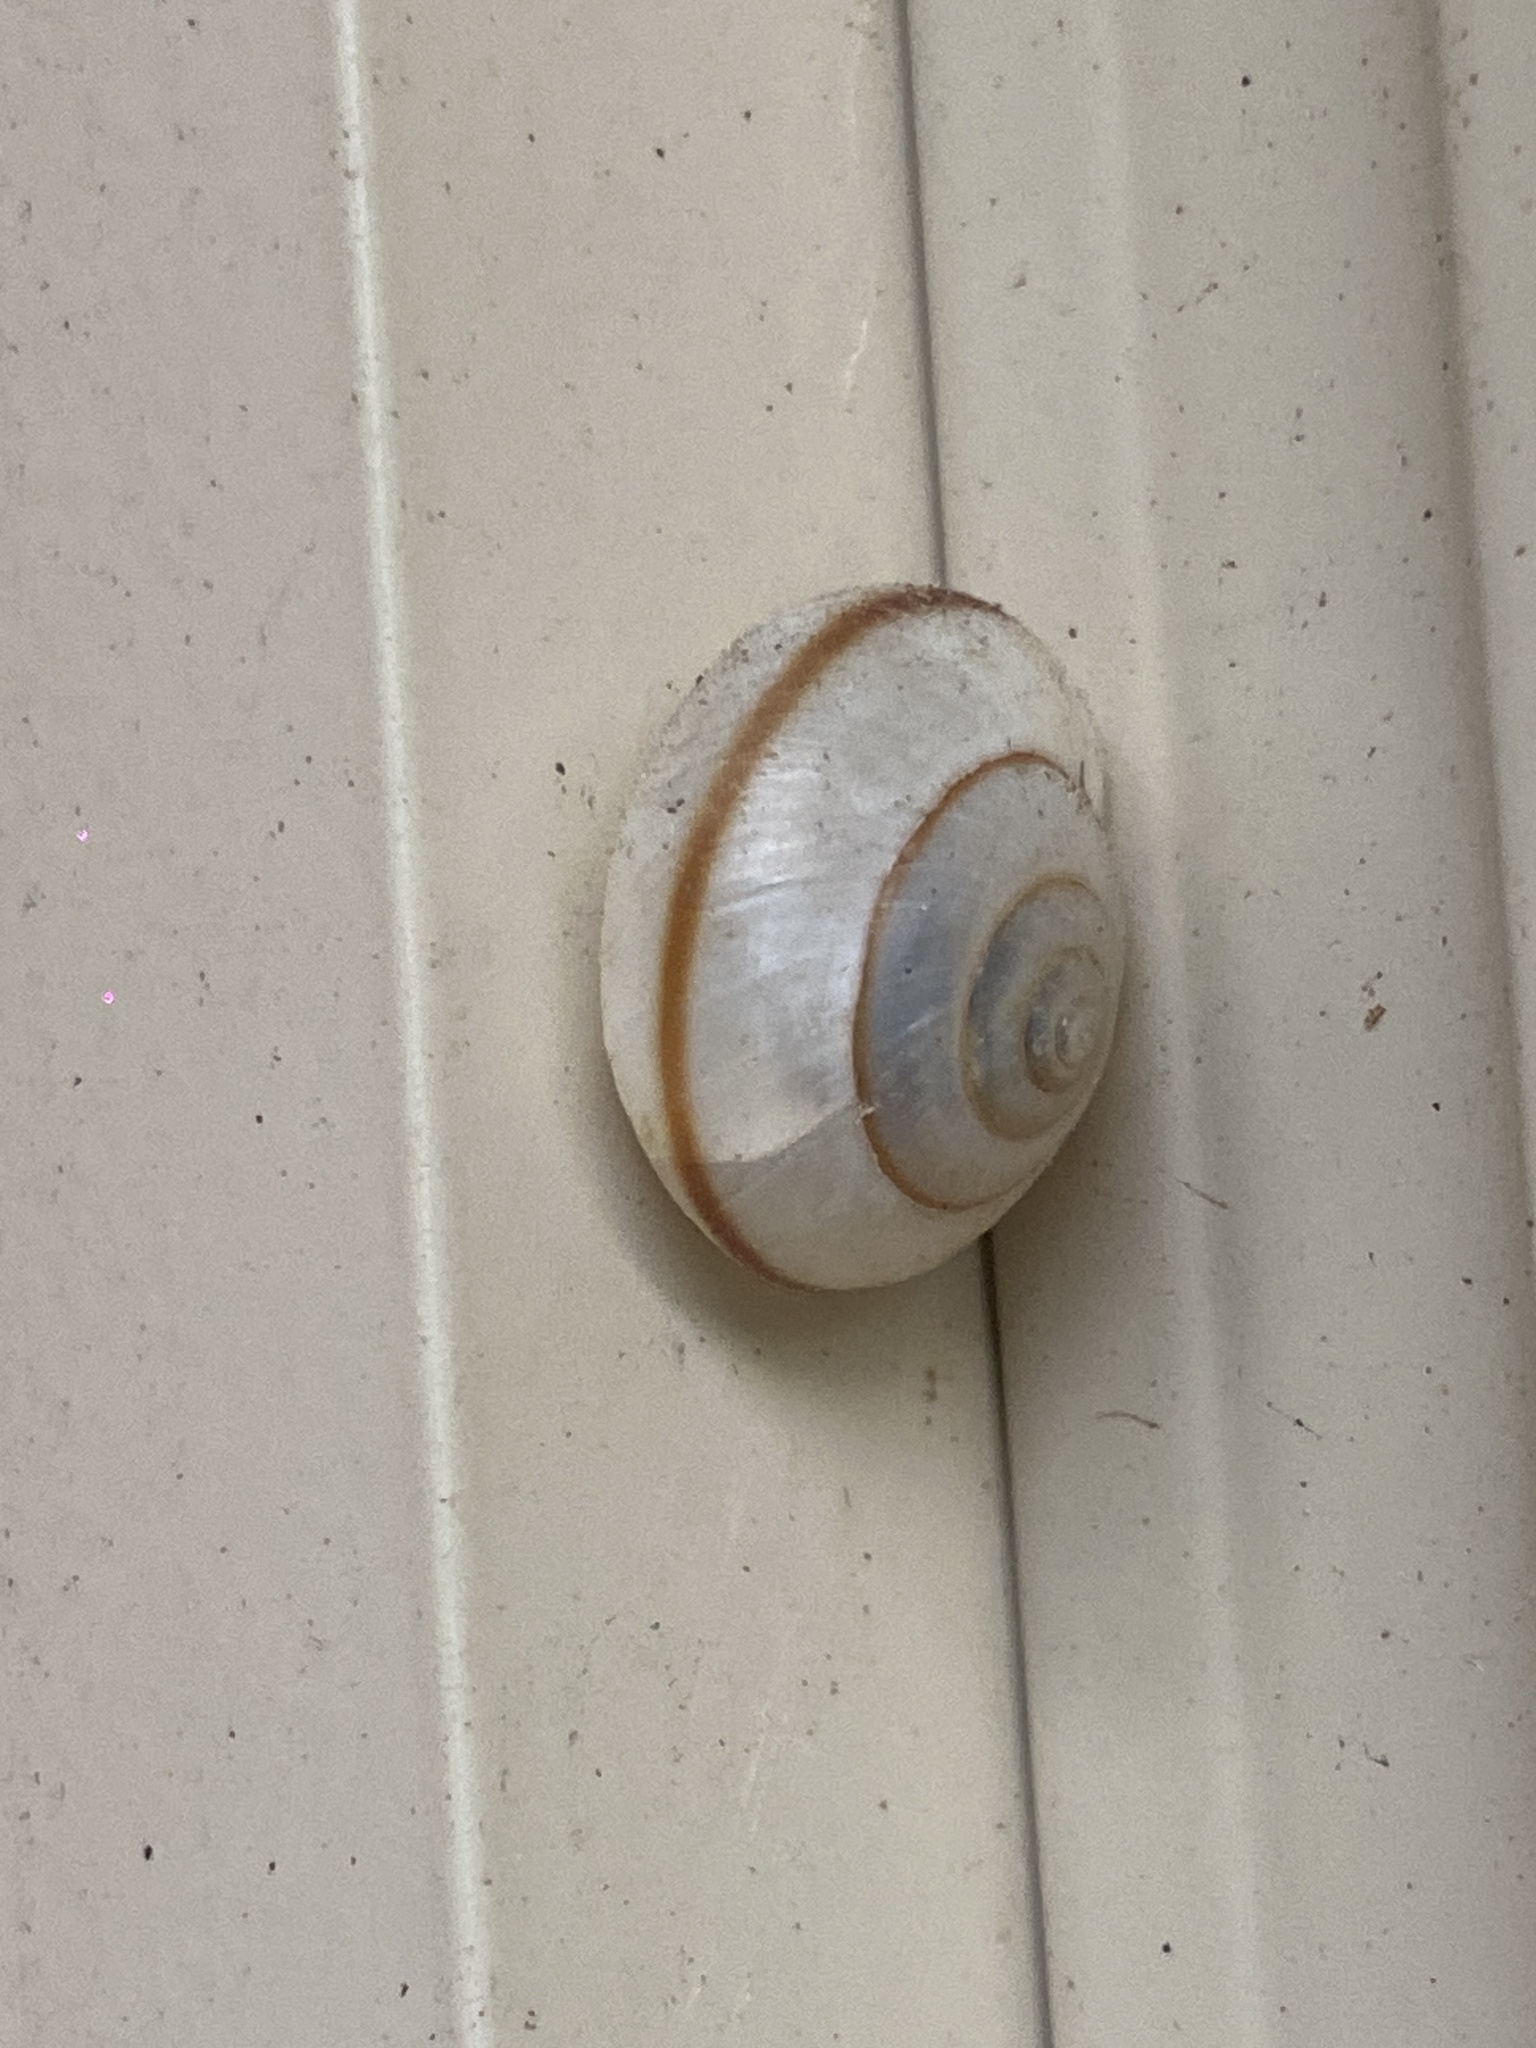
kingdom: Animalia
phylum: Mollusca
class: Gastropoda
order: Stylommatophora
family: Camaenidae
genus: Bradybaena
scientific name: Bradybaena similaris
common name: Asian trampsnail
